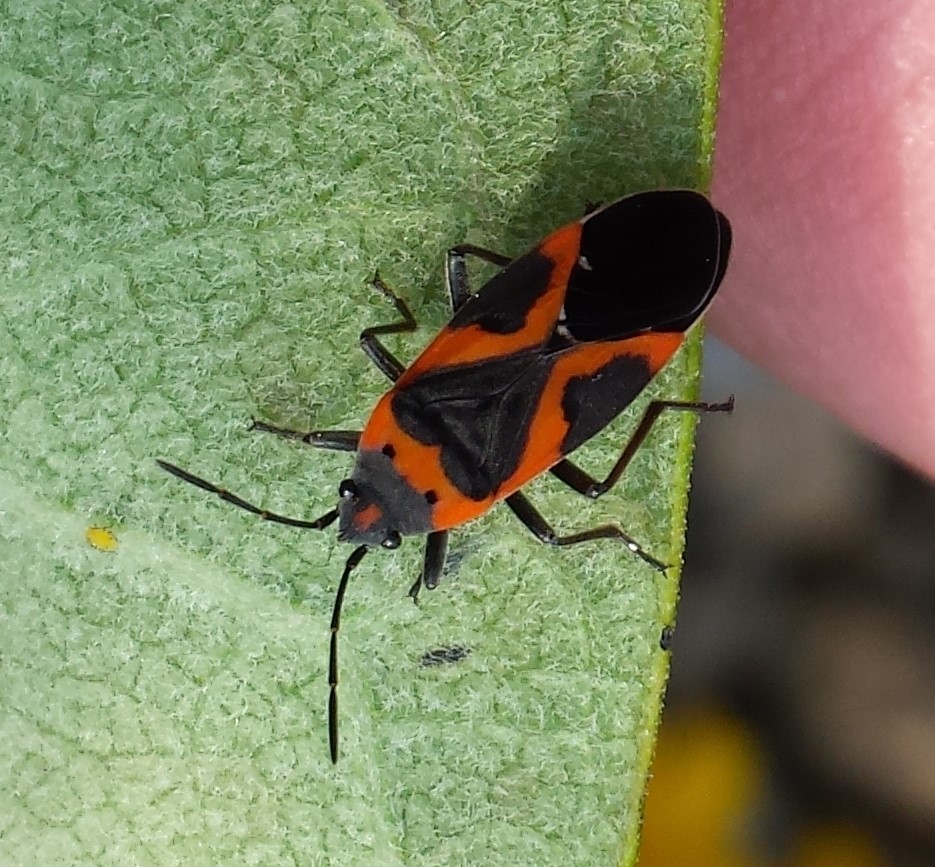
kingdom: Animalia
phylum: Arthropoda
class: Insecta
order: Hemiptera
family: Lygaeidae
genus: Lygaeus
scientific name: Lygaeus kalmii
